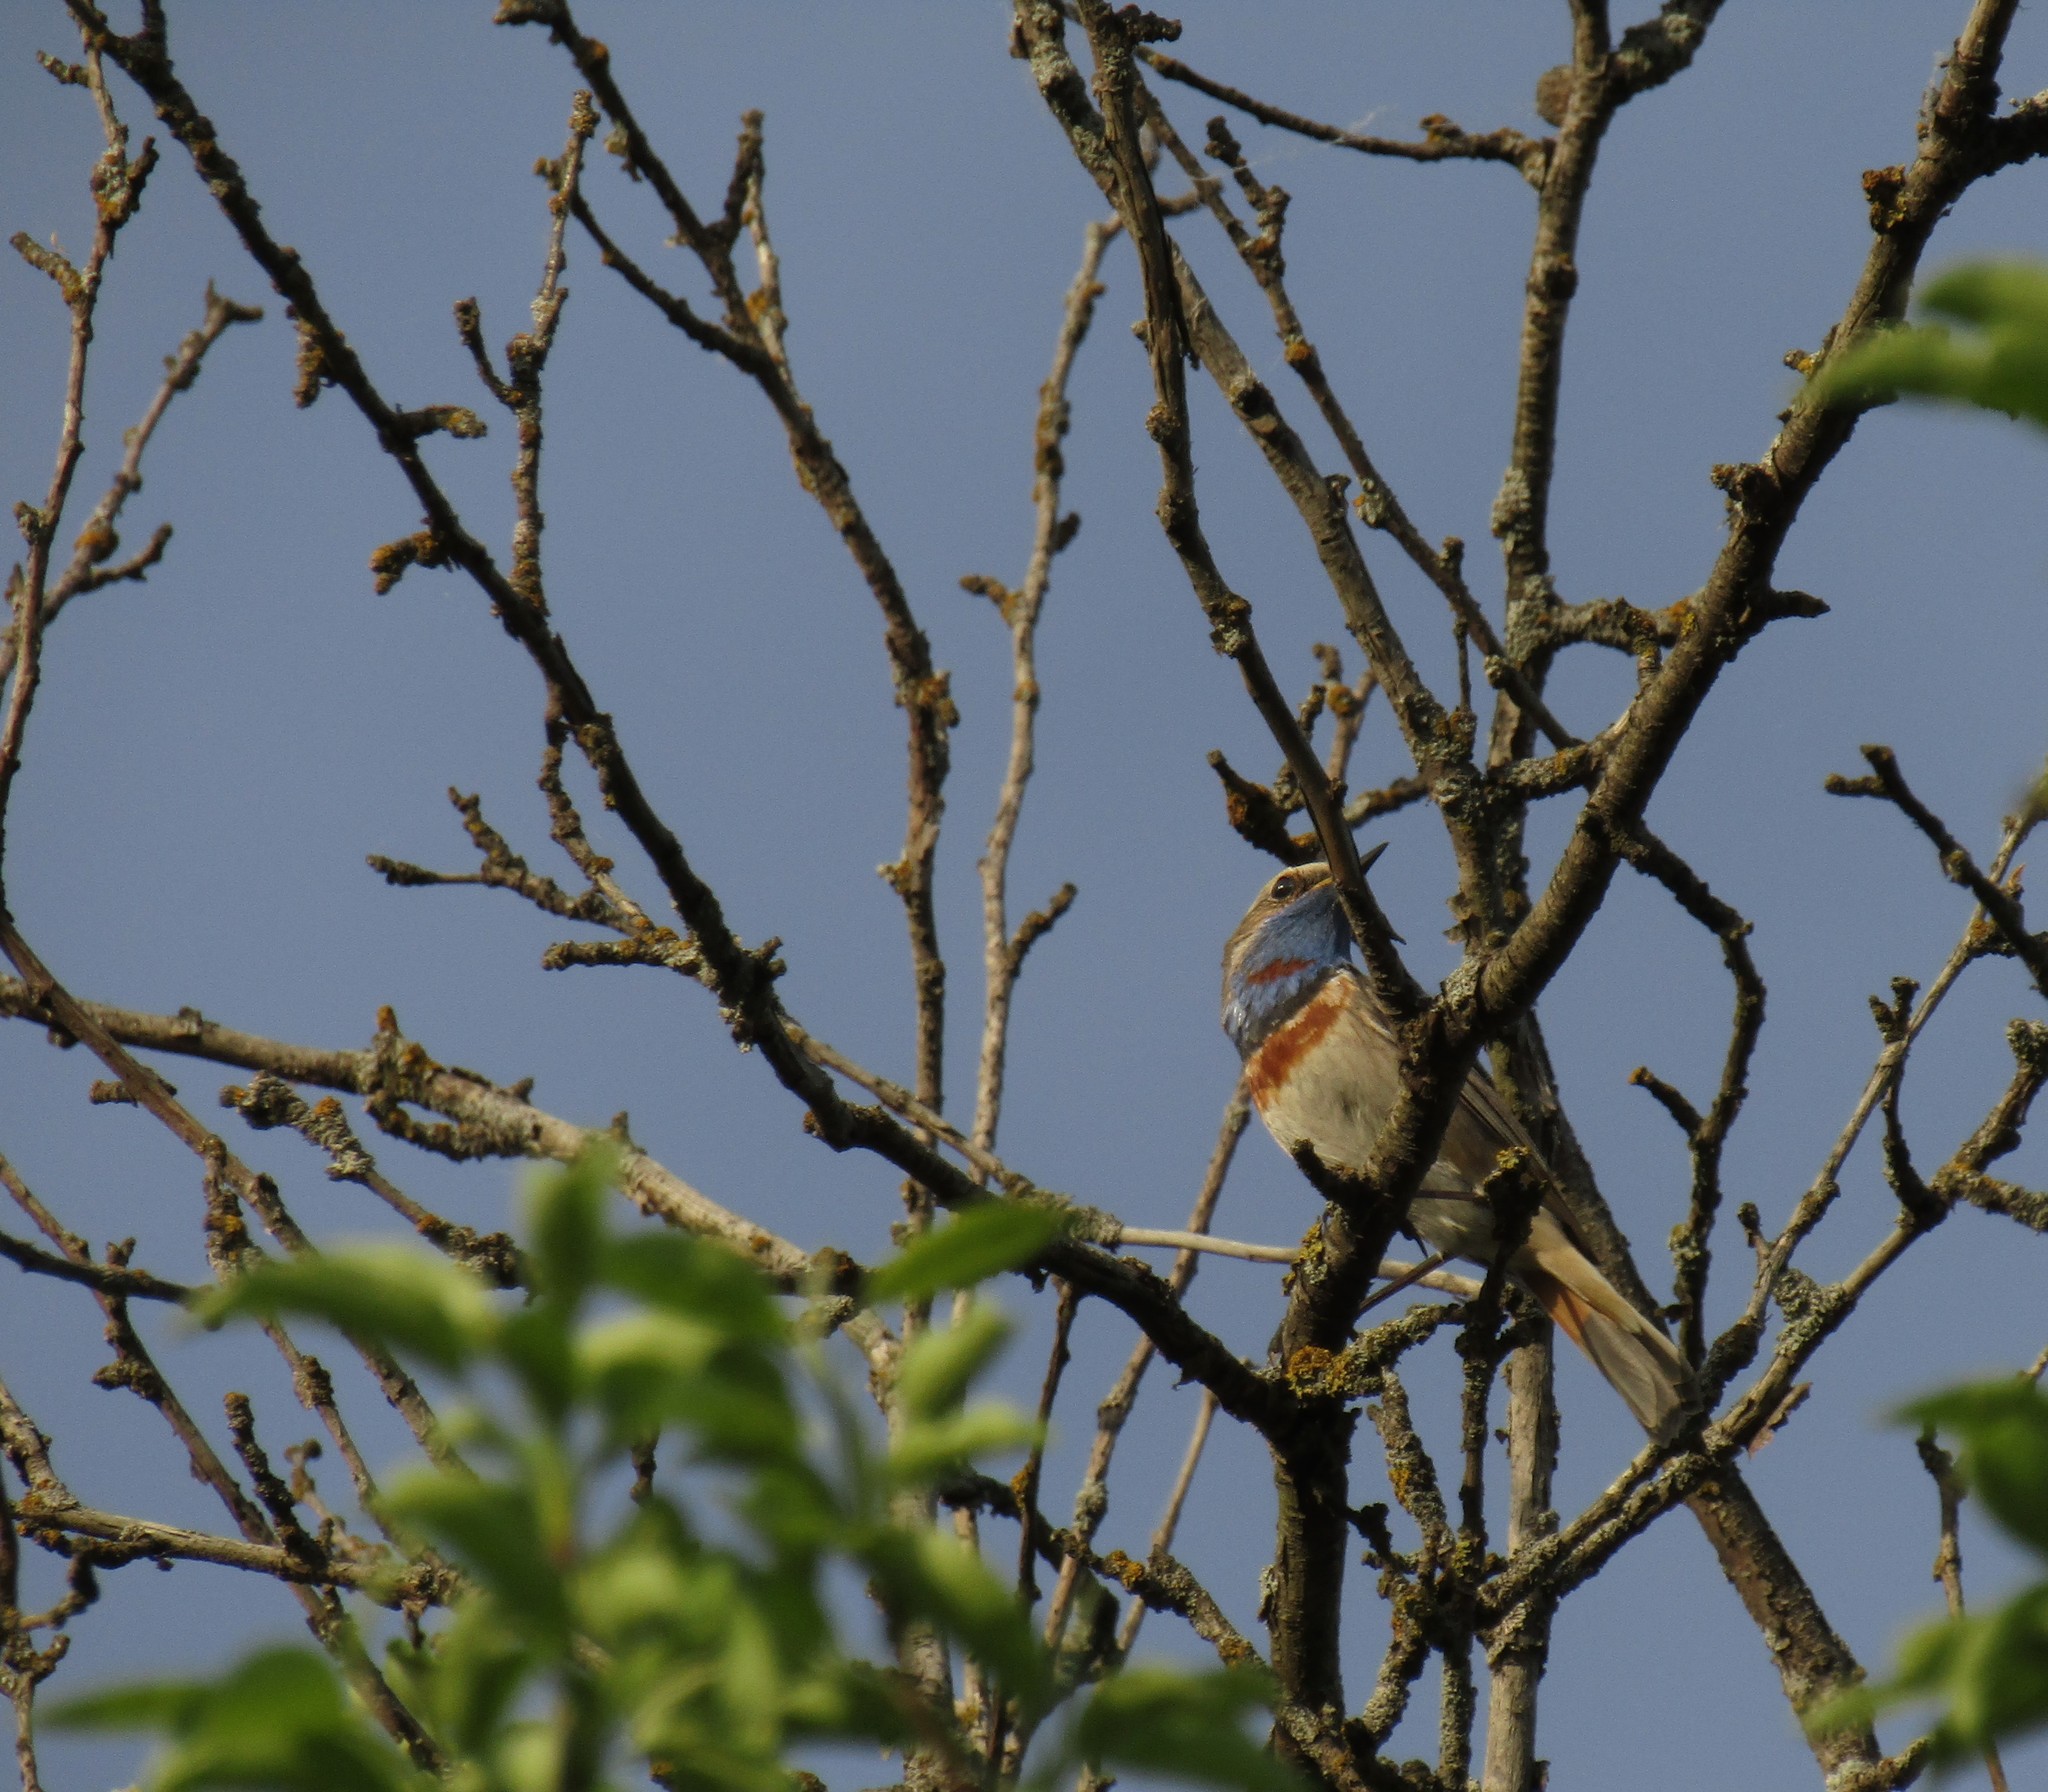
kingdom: Animalia
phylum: Chordata
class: Aves
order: Passeriformes
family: Muscicapidae
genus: Luscinia
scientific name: Luscinia svecica
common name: Bluethroat
